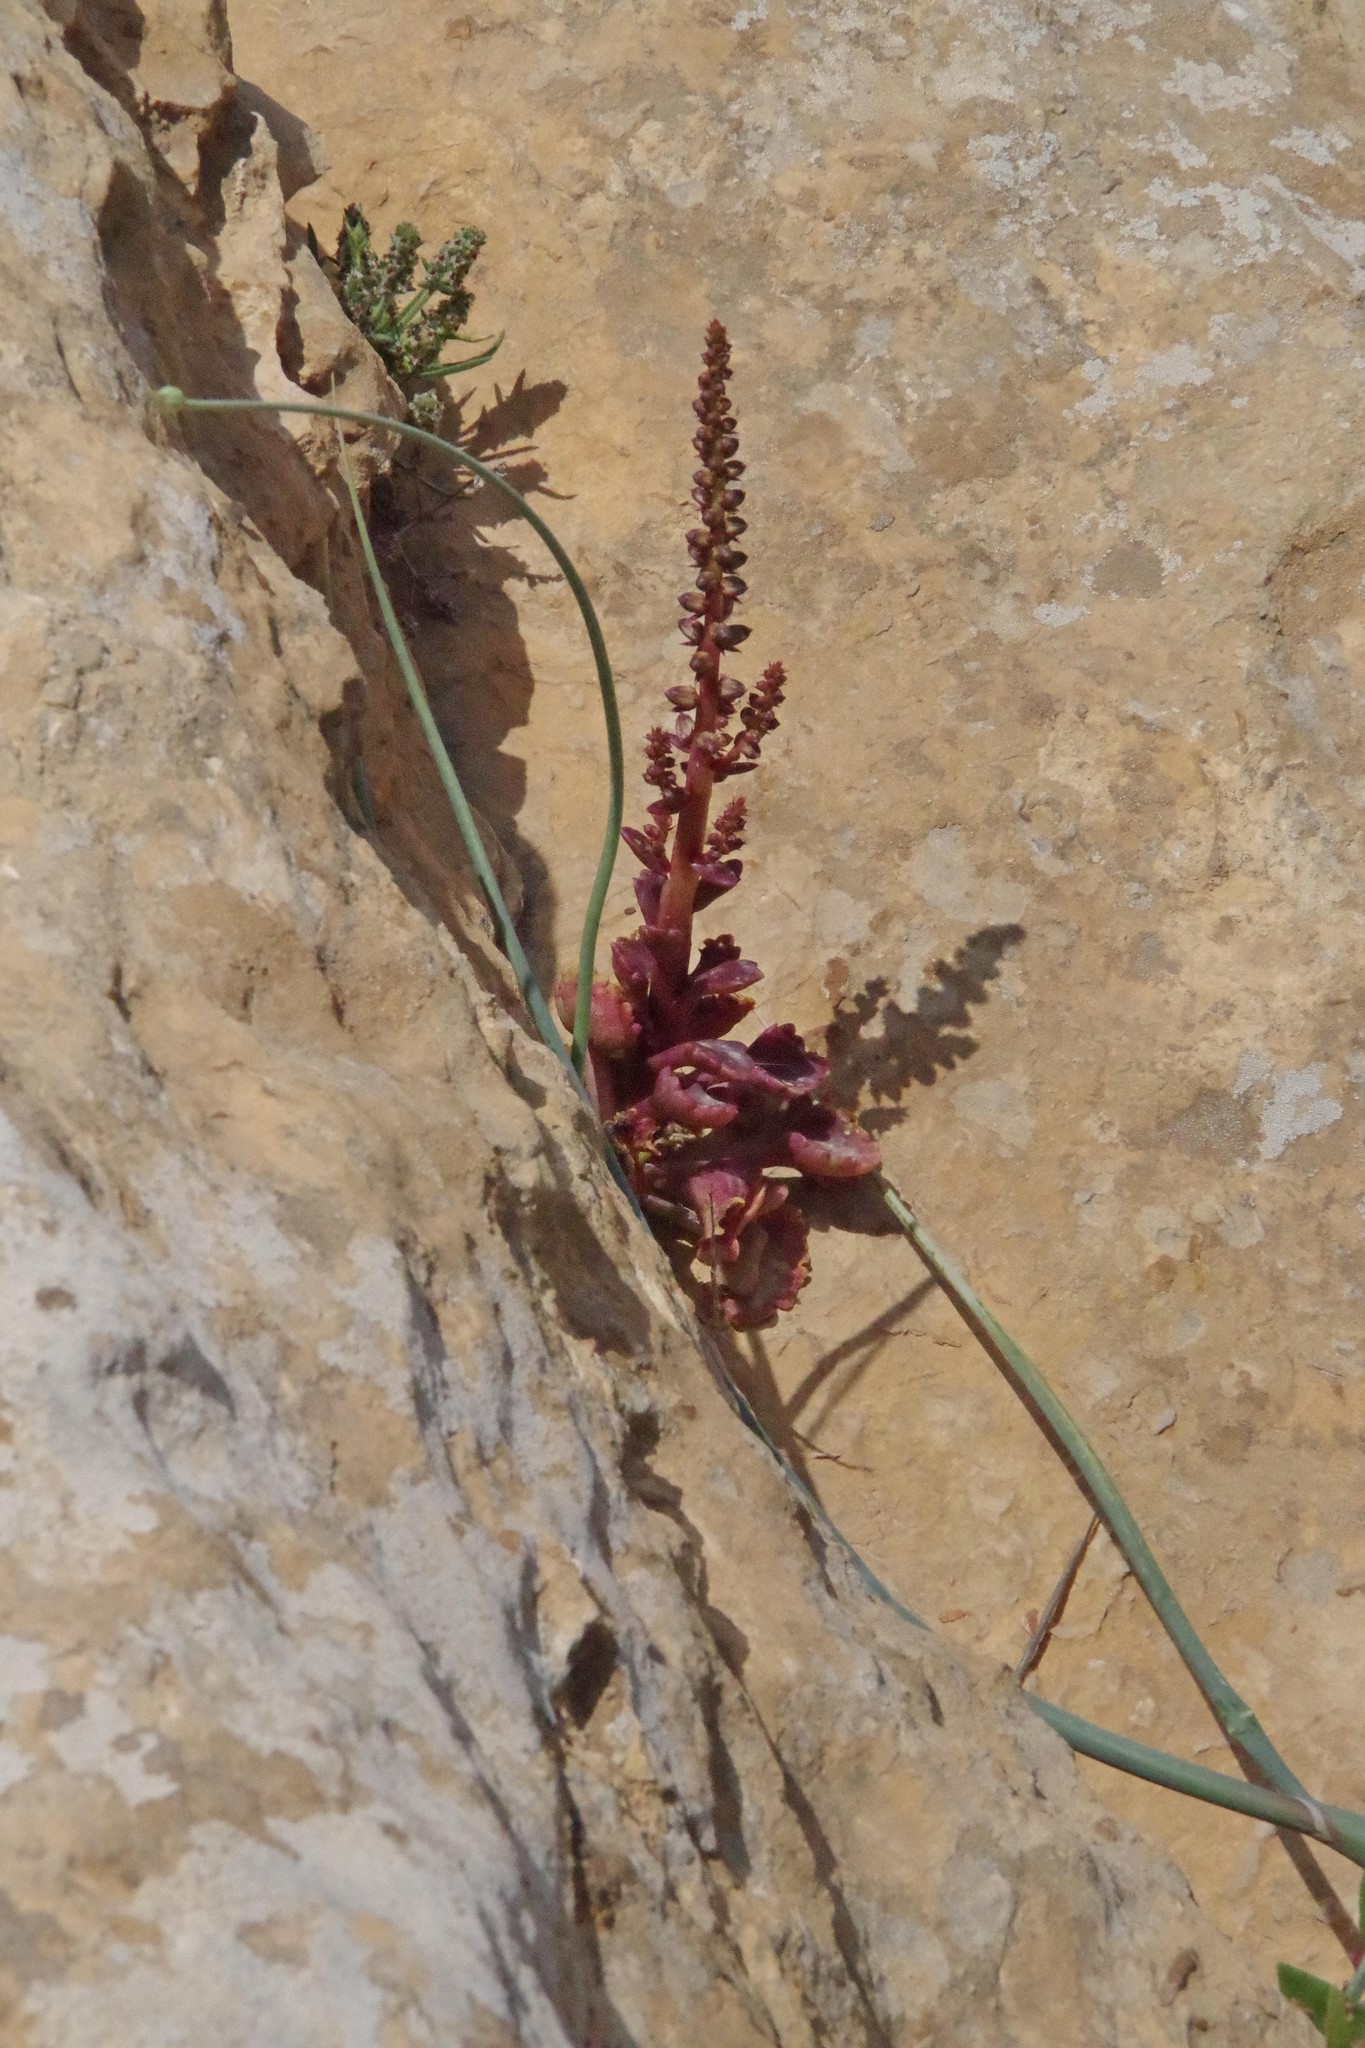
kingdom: Plantae
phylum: Tracheophyta
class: Magnoliopsida
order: Saxifragales
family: Crassulaceae
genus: Umbilicus
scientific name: Umbilicus horizontalis
